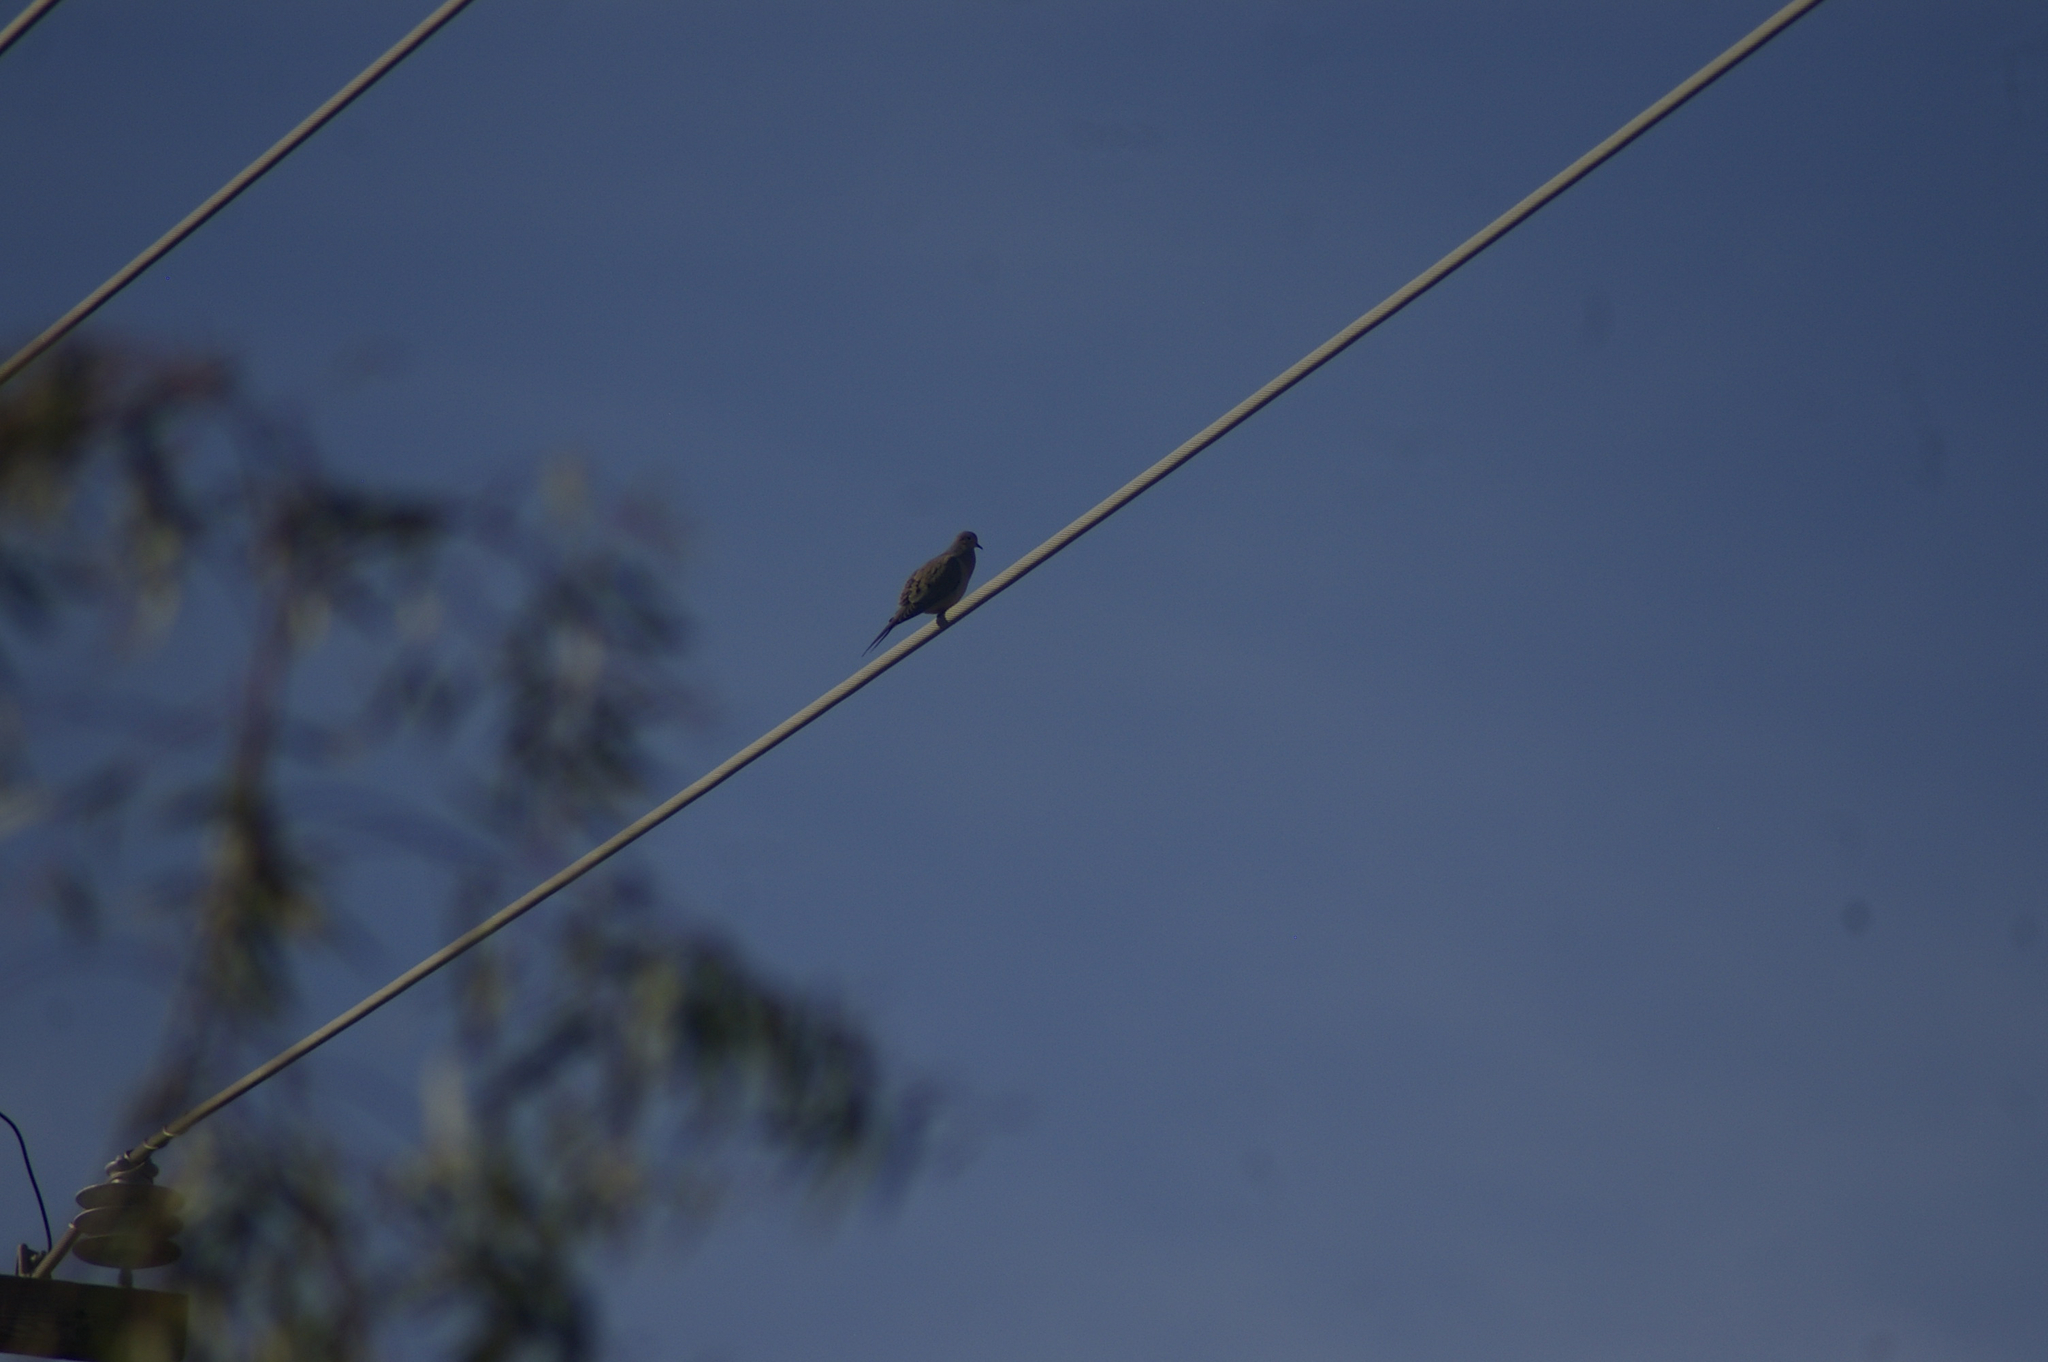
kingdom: Animalia
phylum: Chordata
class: Aves
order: Columbiformes
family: Columbidae
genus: Zenaida
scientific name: Zenaida macroura
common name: Mourning dove
